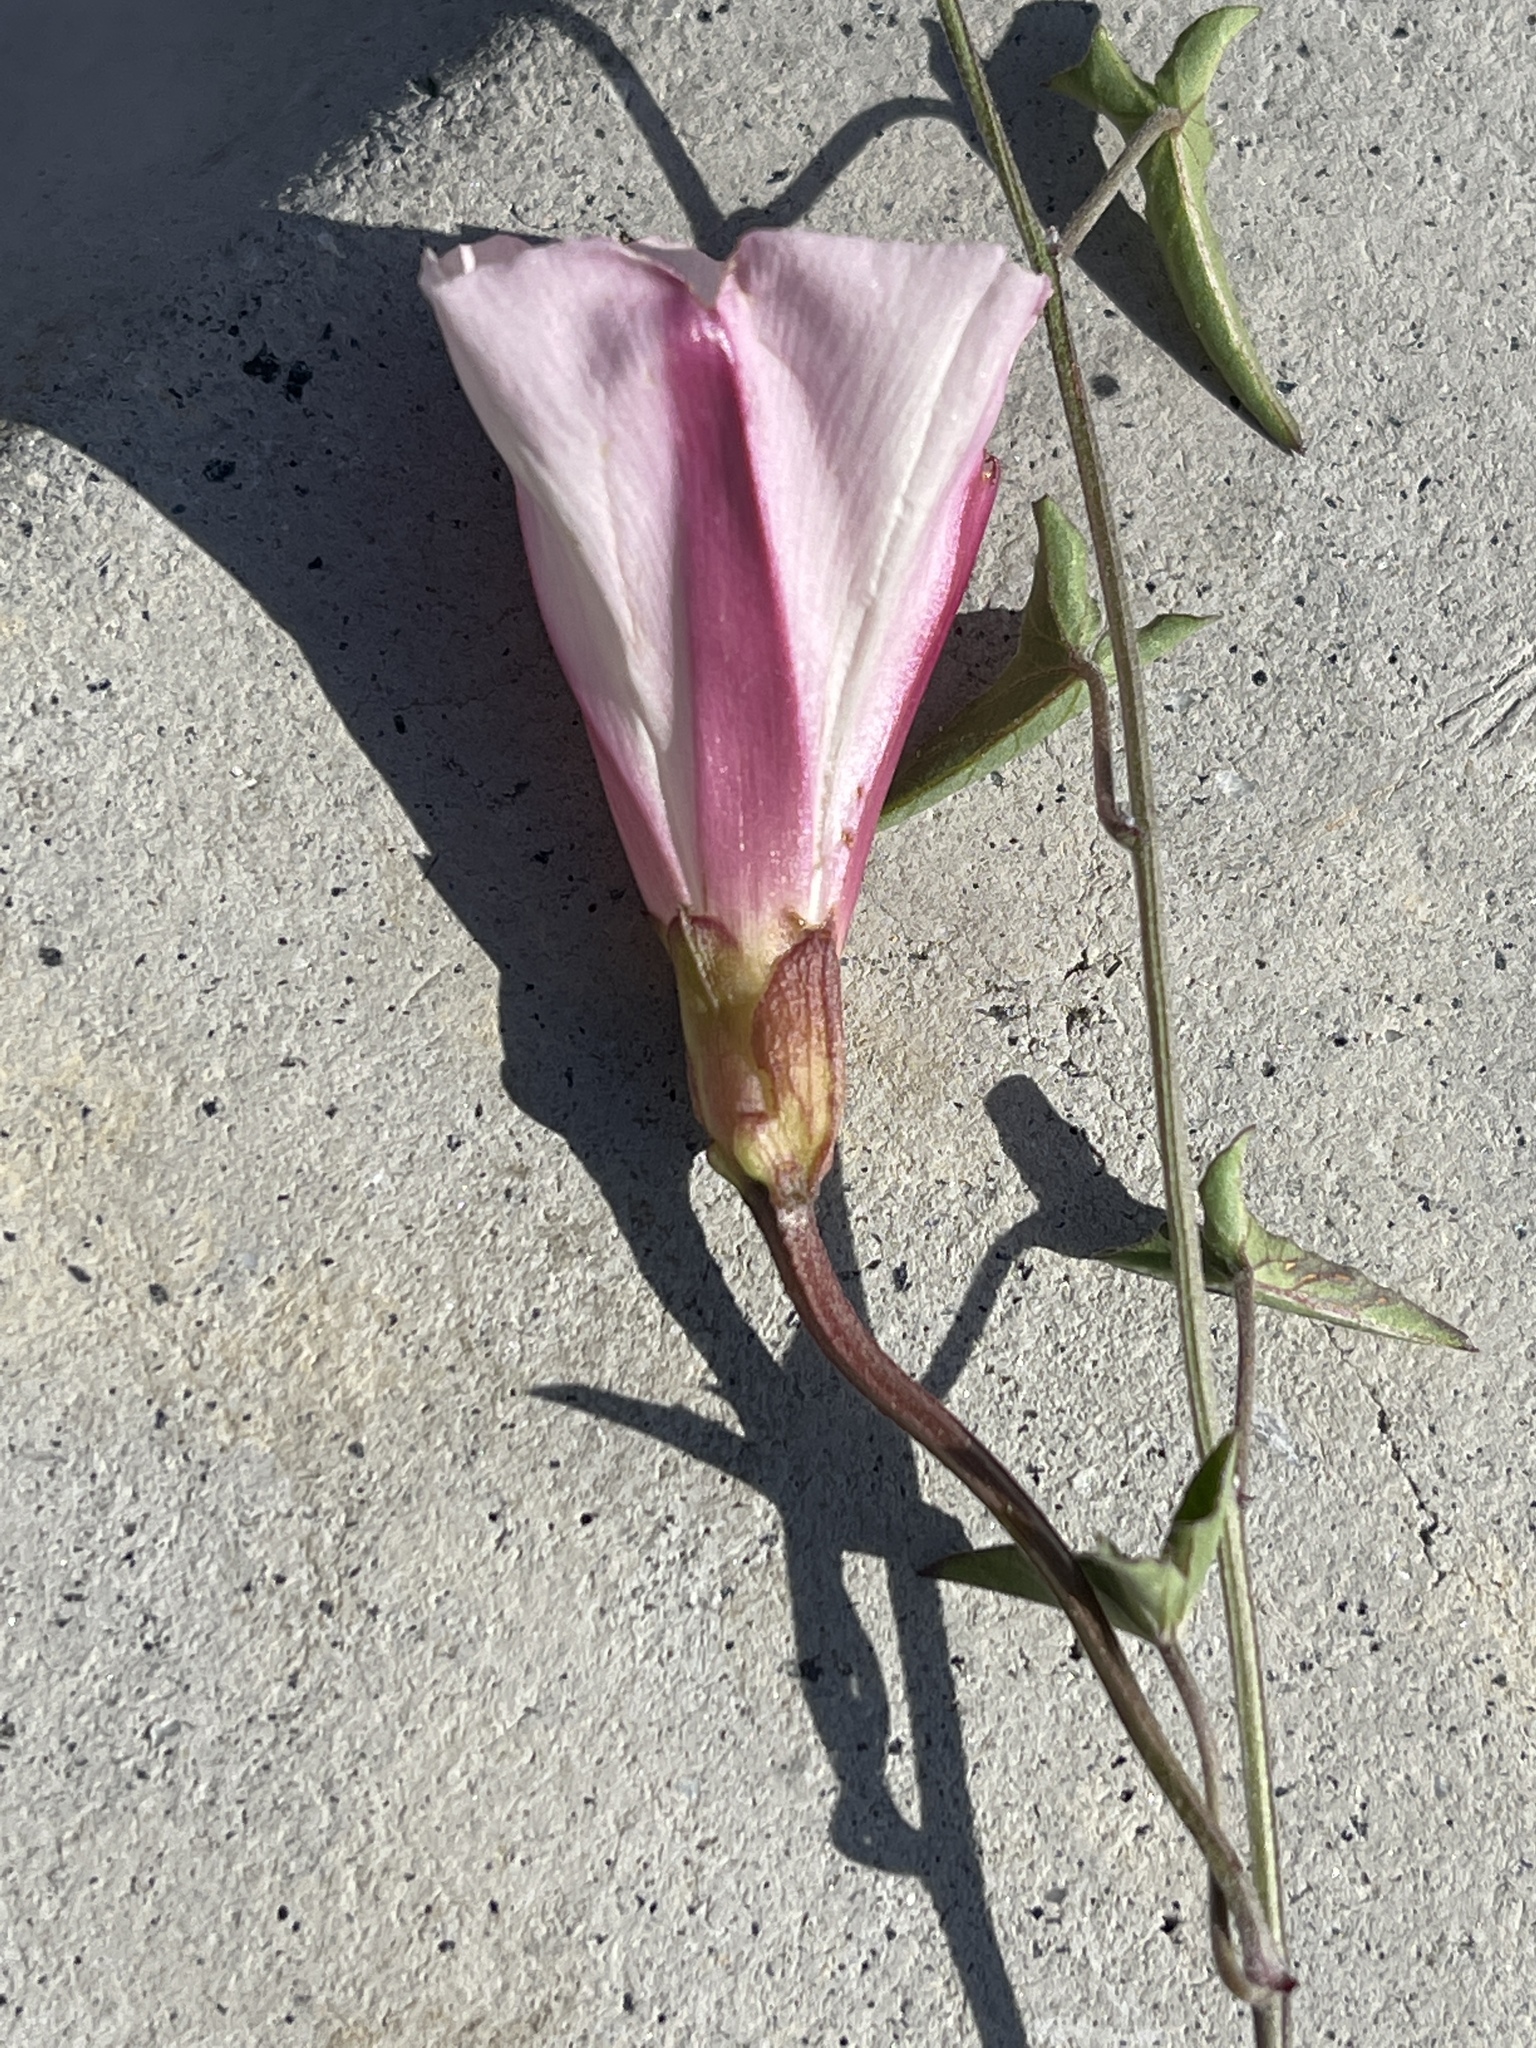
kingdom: Plantae
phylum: Tracheophyta
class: Magnoliopsida
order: Solanales
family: Convolvulaceae
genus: Calystegia
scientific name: Calystegia macrostegia
